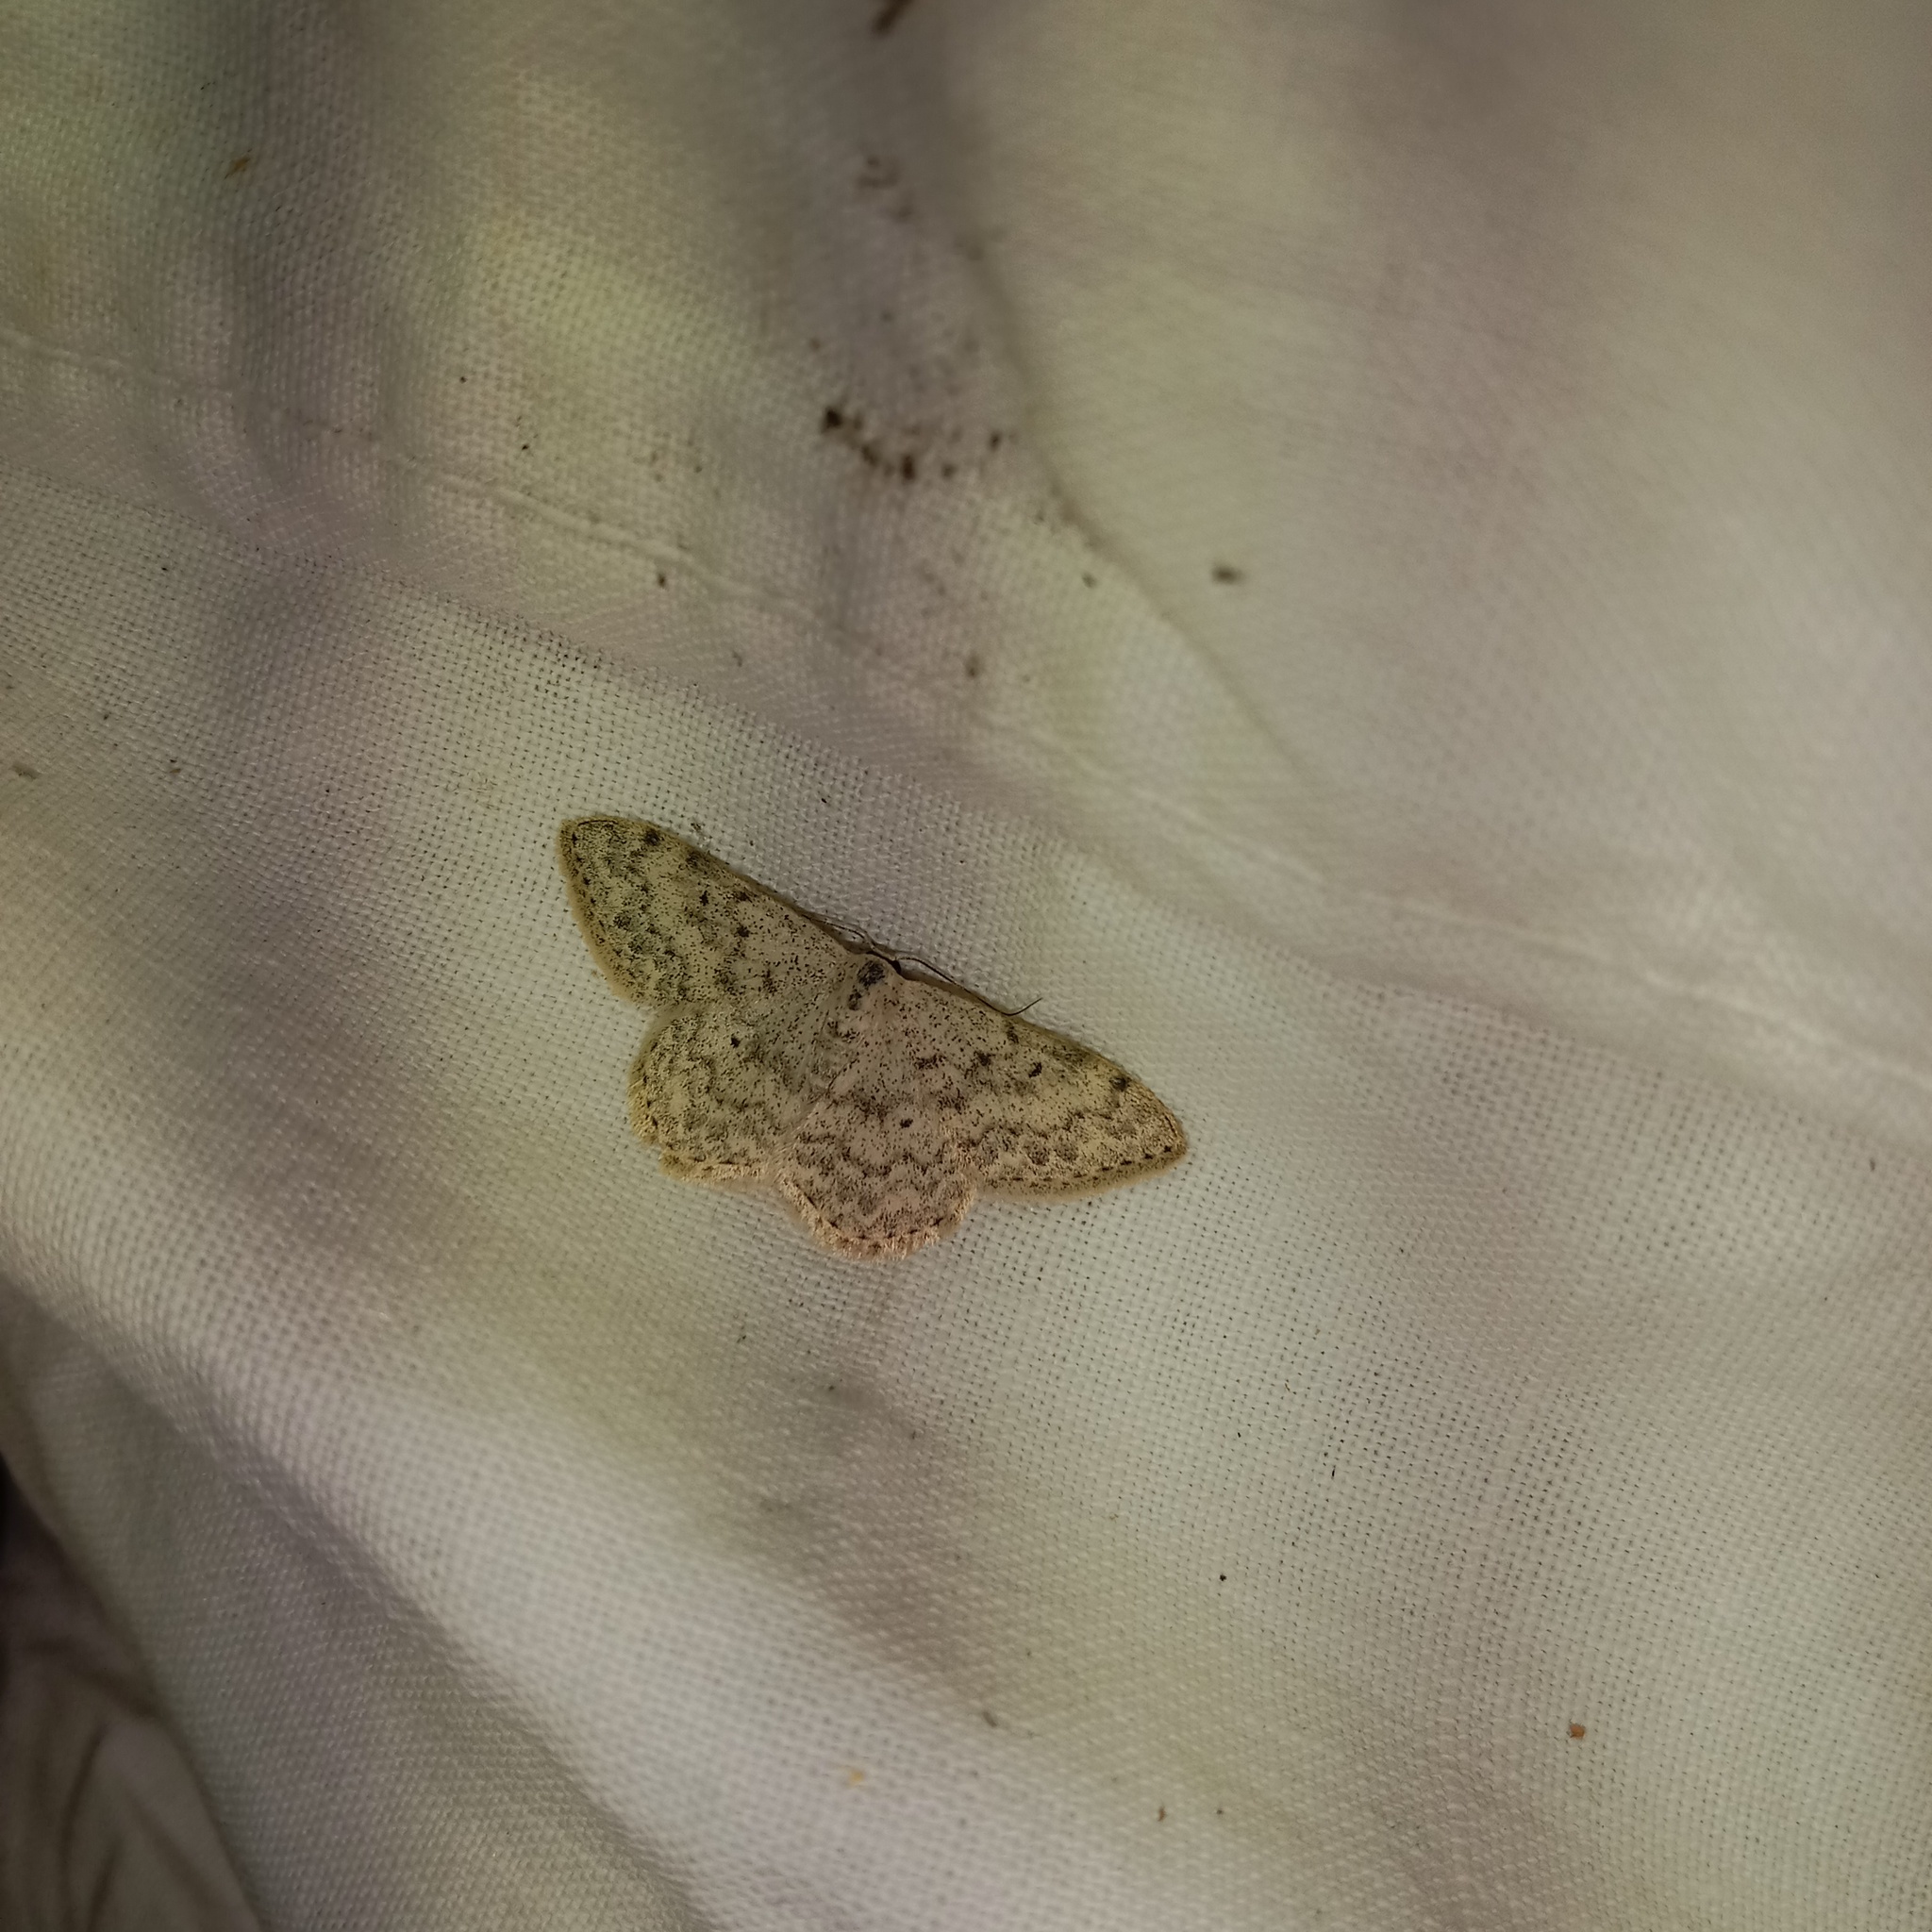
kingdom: Animalia
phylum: Arthropoda
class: Insecta
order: Lepidoptera
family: Geometridae
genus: Scopula
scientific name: Scopula marginepunctata
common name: Mullein wave
